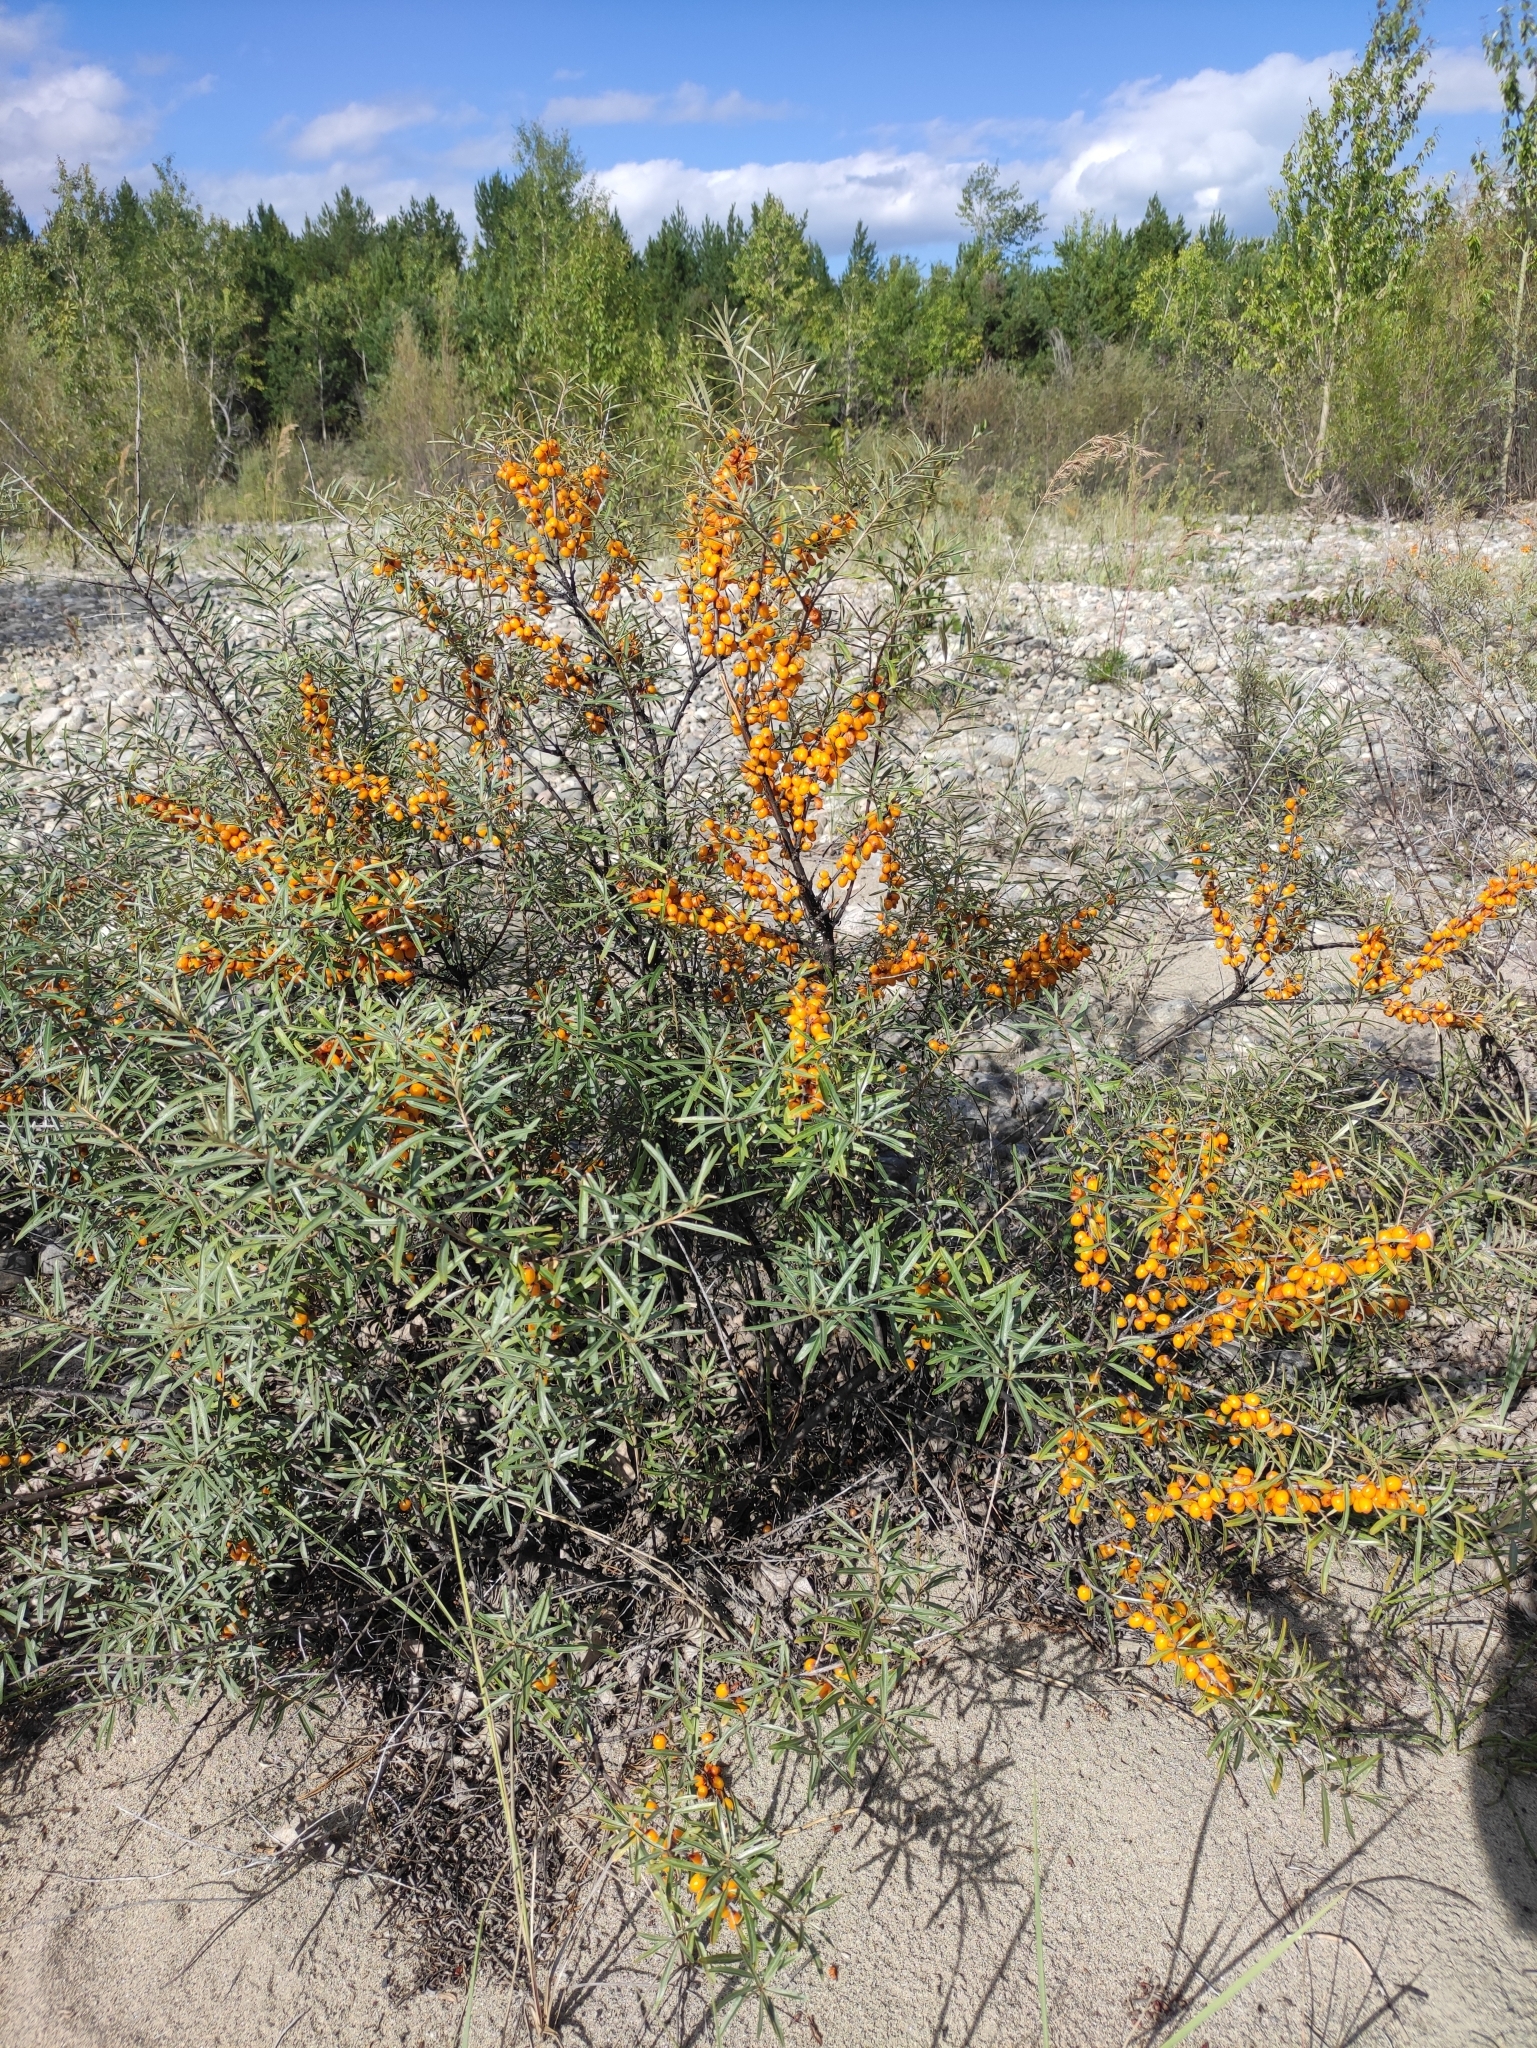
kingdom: Plantae
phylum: Tracheophyta
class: Magnoliopsida
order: Rosales
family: Elaeagnaceae
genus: Hippophae
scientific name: Hippophae rhamnoides
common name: Sea-buckthorn
